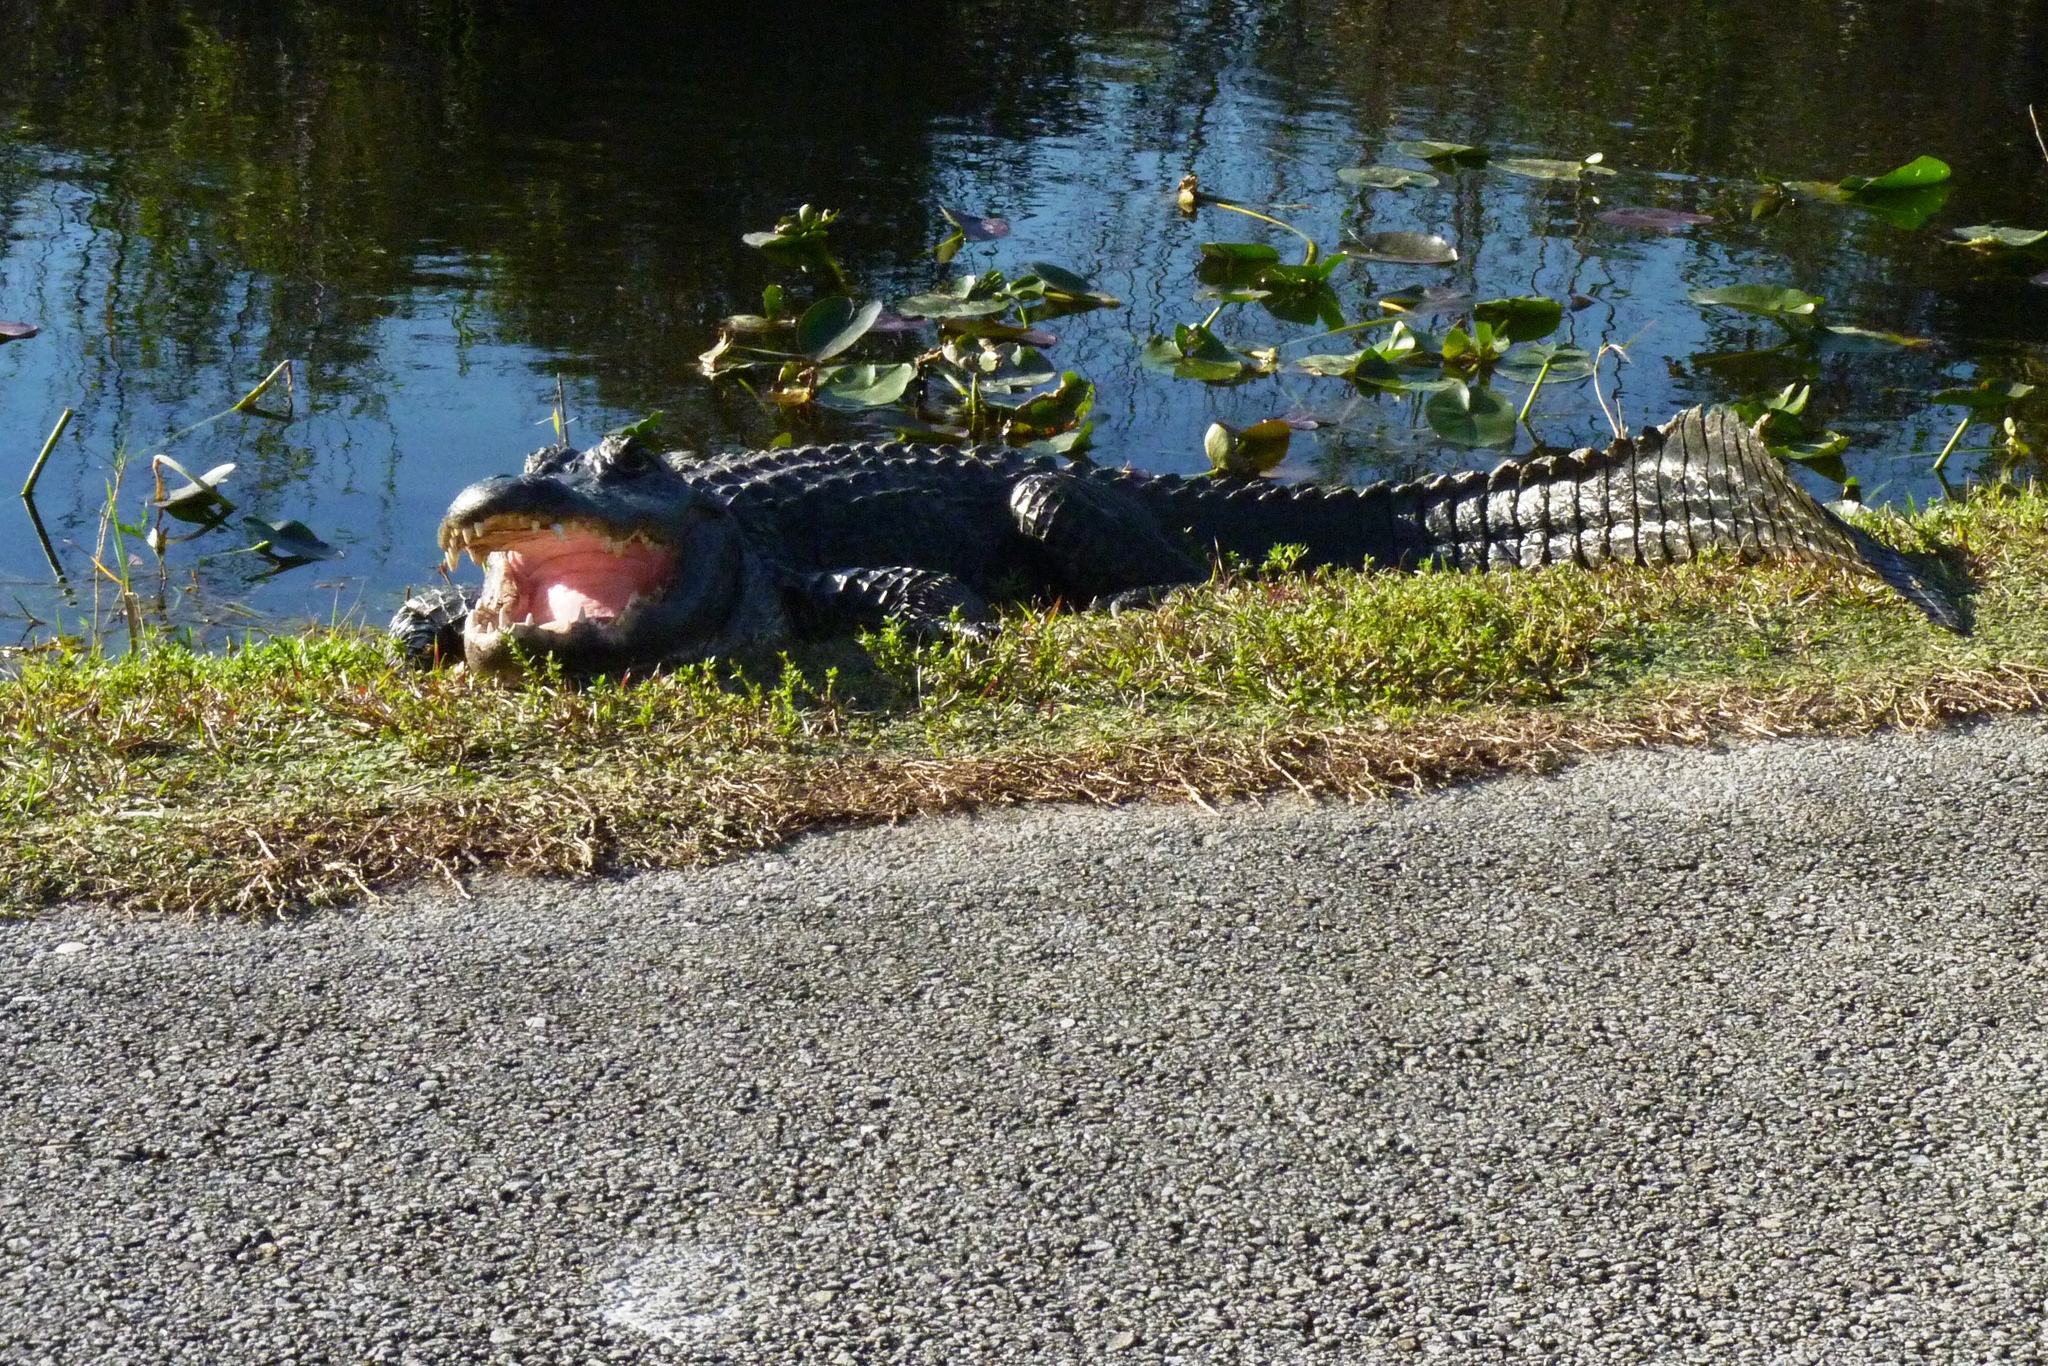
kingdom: Animalia
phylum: Chordata
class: Crocodylia
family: Alligatoridae
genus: Alligator
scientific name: Alligator mississippiensis
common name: American alligator
